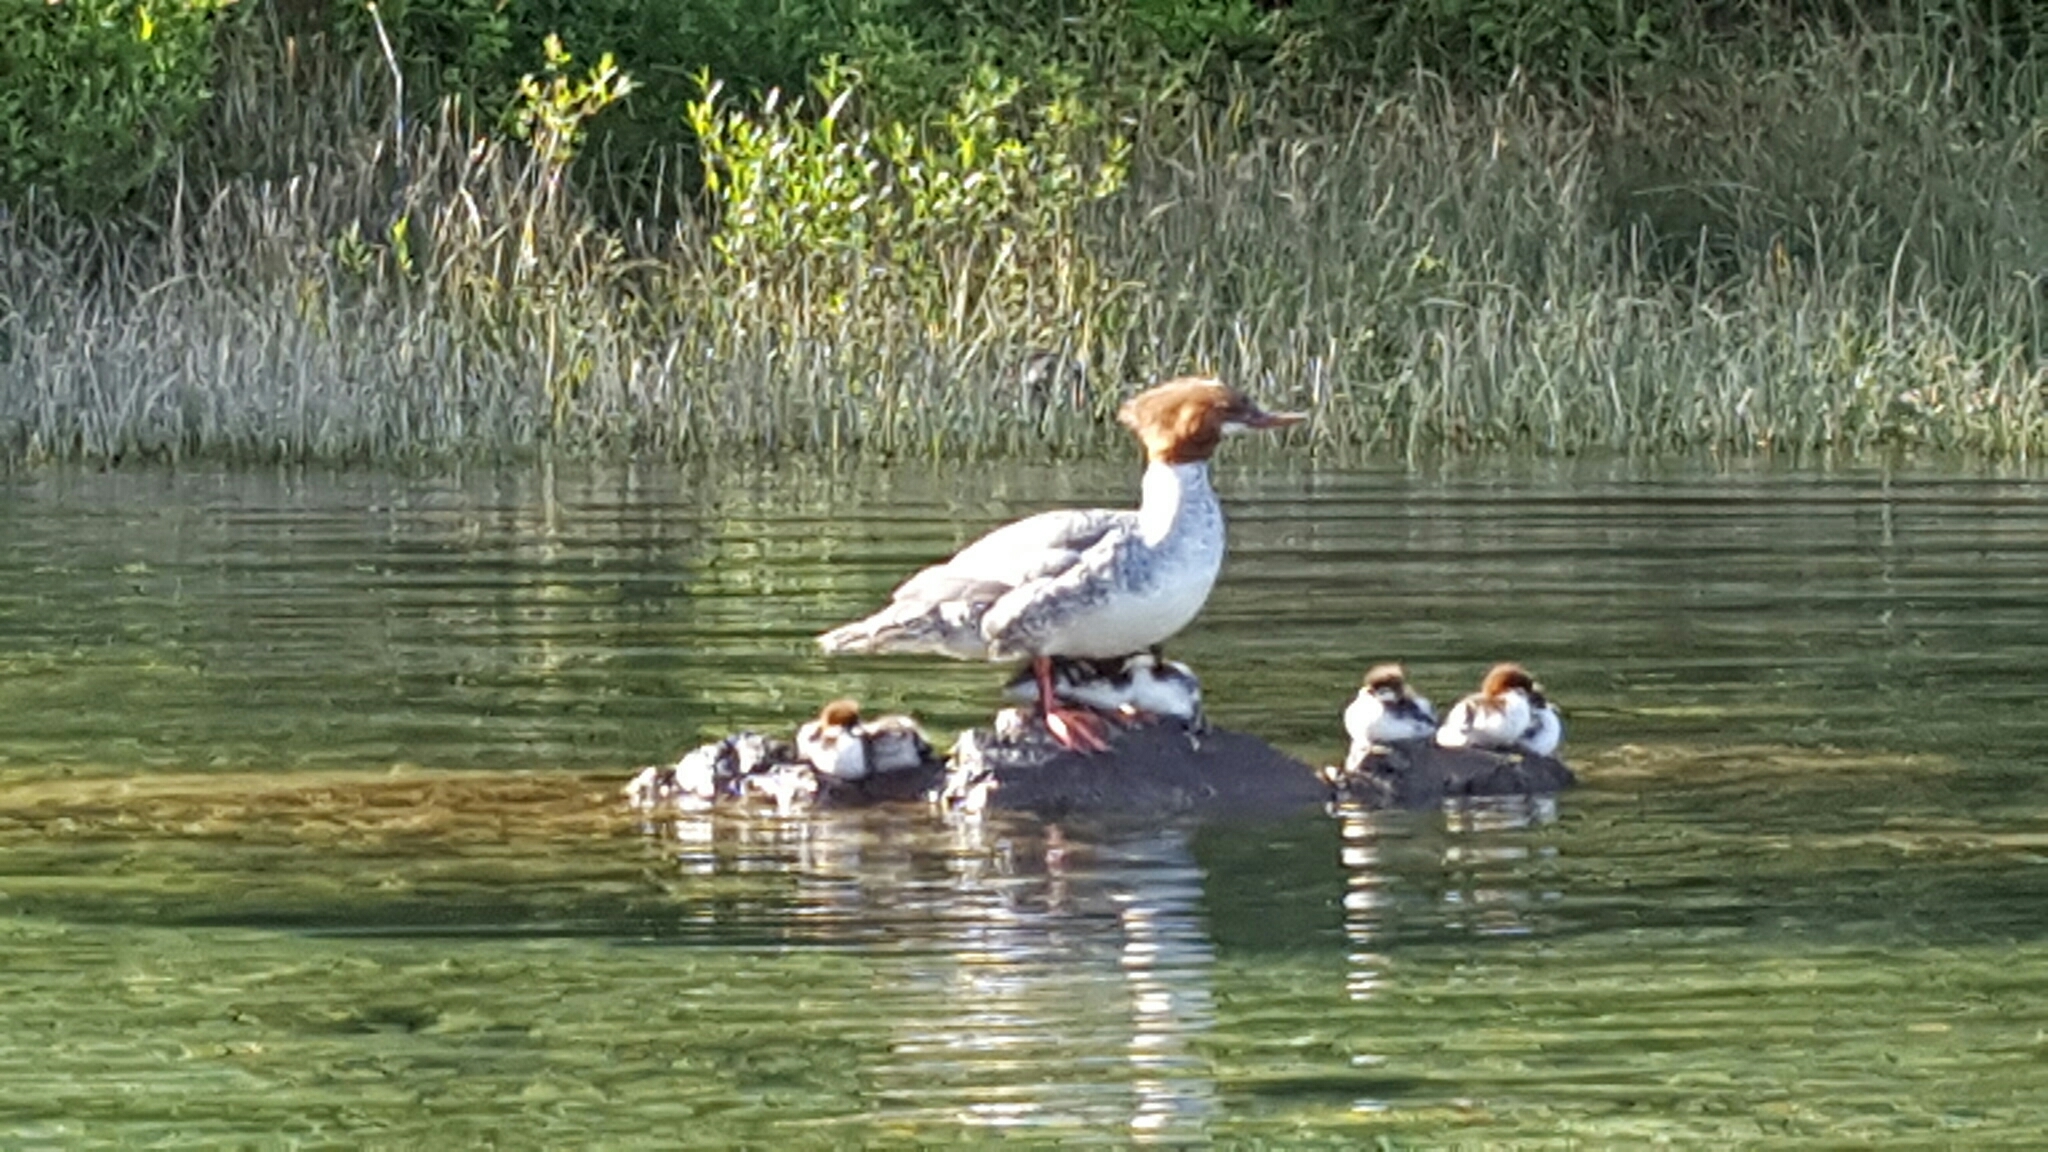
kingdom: Animalia
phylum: Chordata
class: Aves
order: Anseriformes
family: Anatidae
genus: Mergus
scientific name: Mergus merganser
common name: Common merganser
